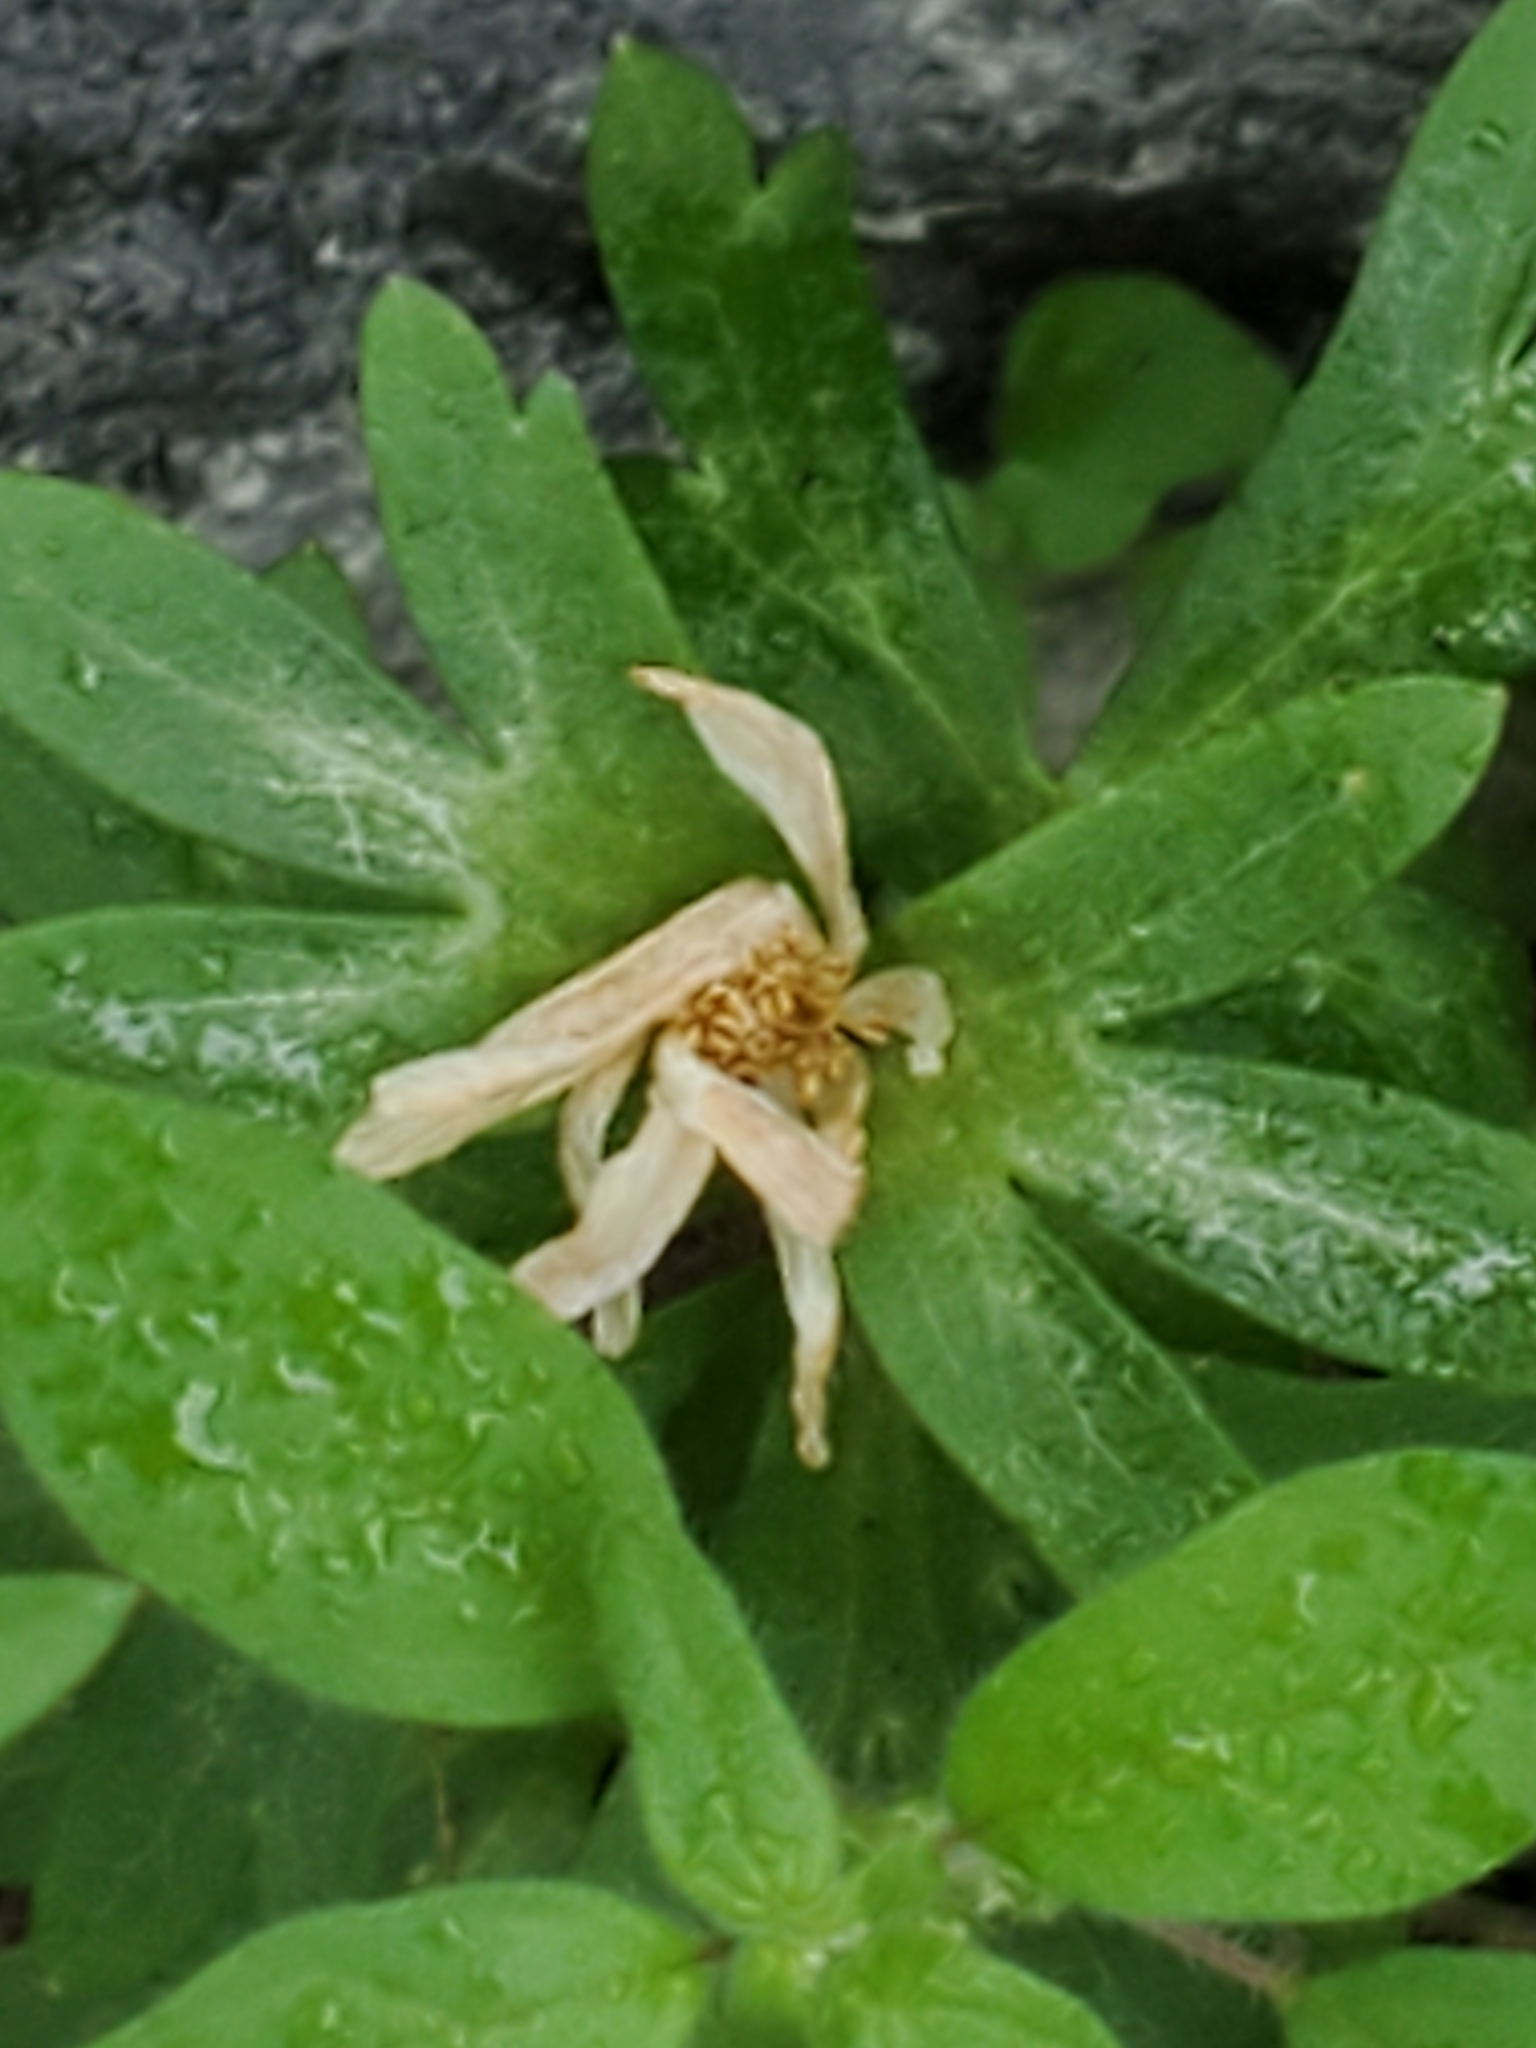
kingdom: Plantae
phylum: Tracheophyta
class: Magnoliopsida
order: Ranunculales
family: Ranunculaceae
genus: Anemone
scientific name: Anemone edwardsiana
